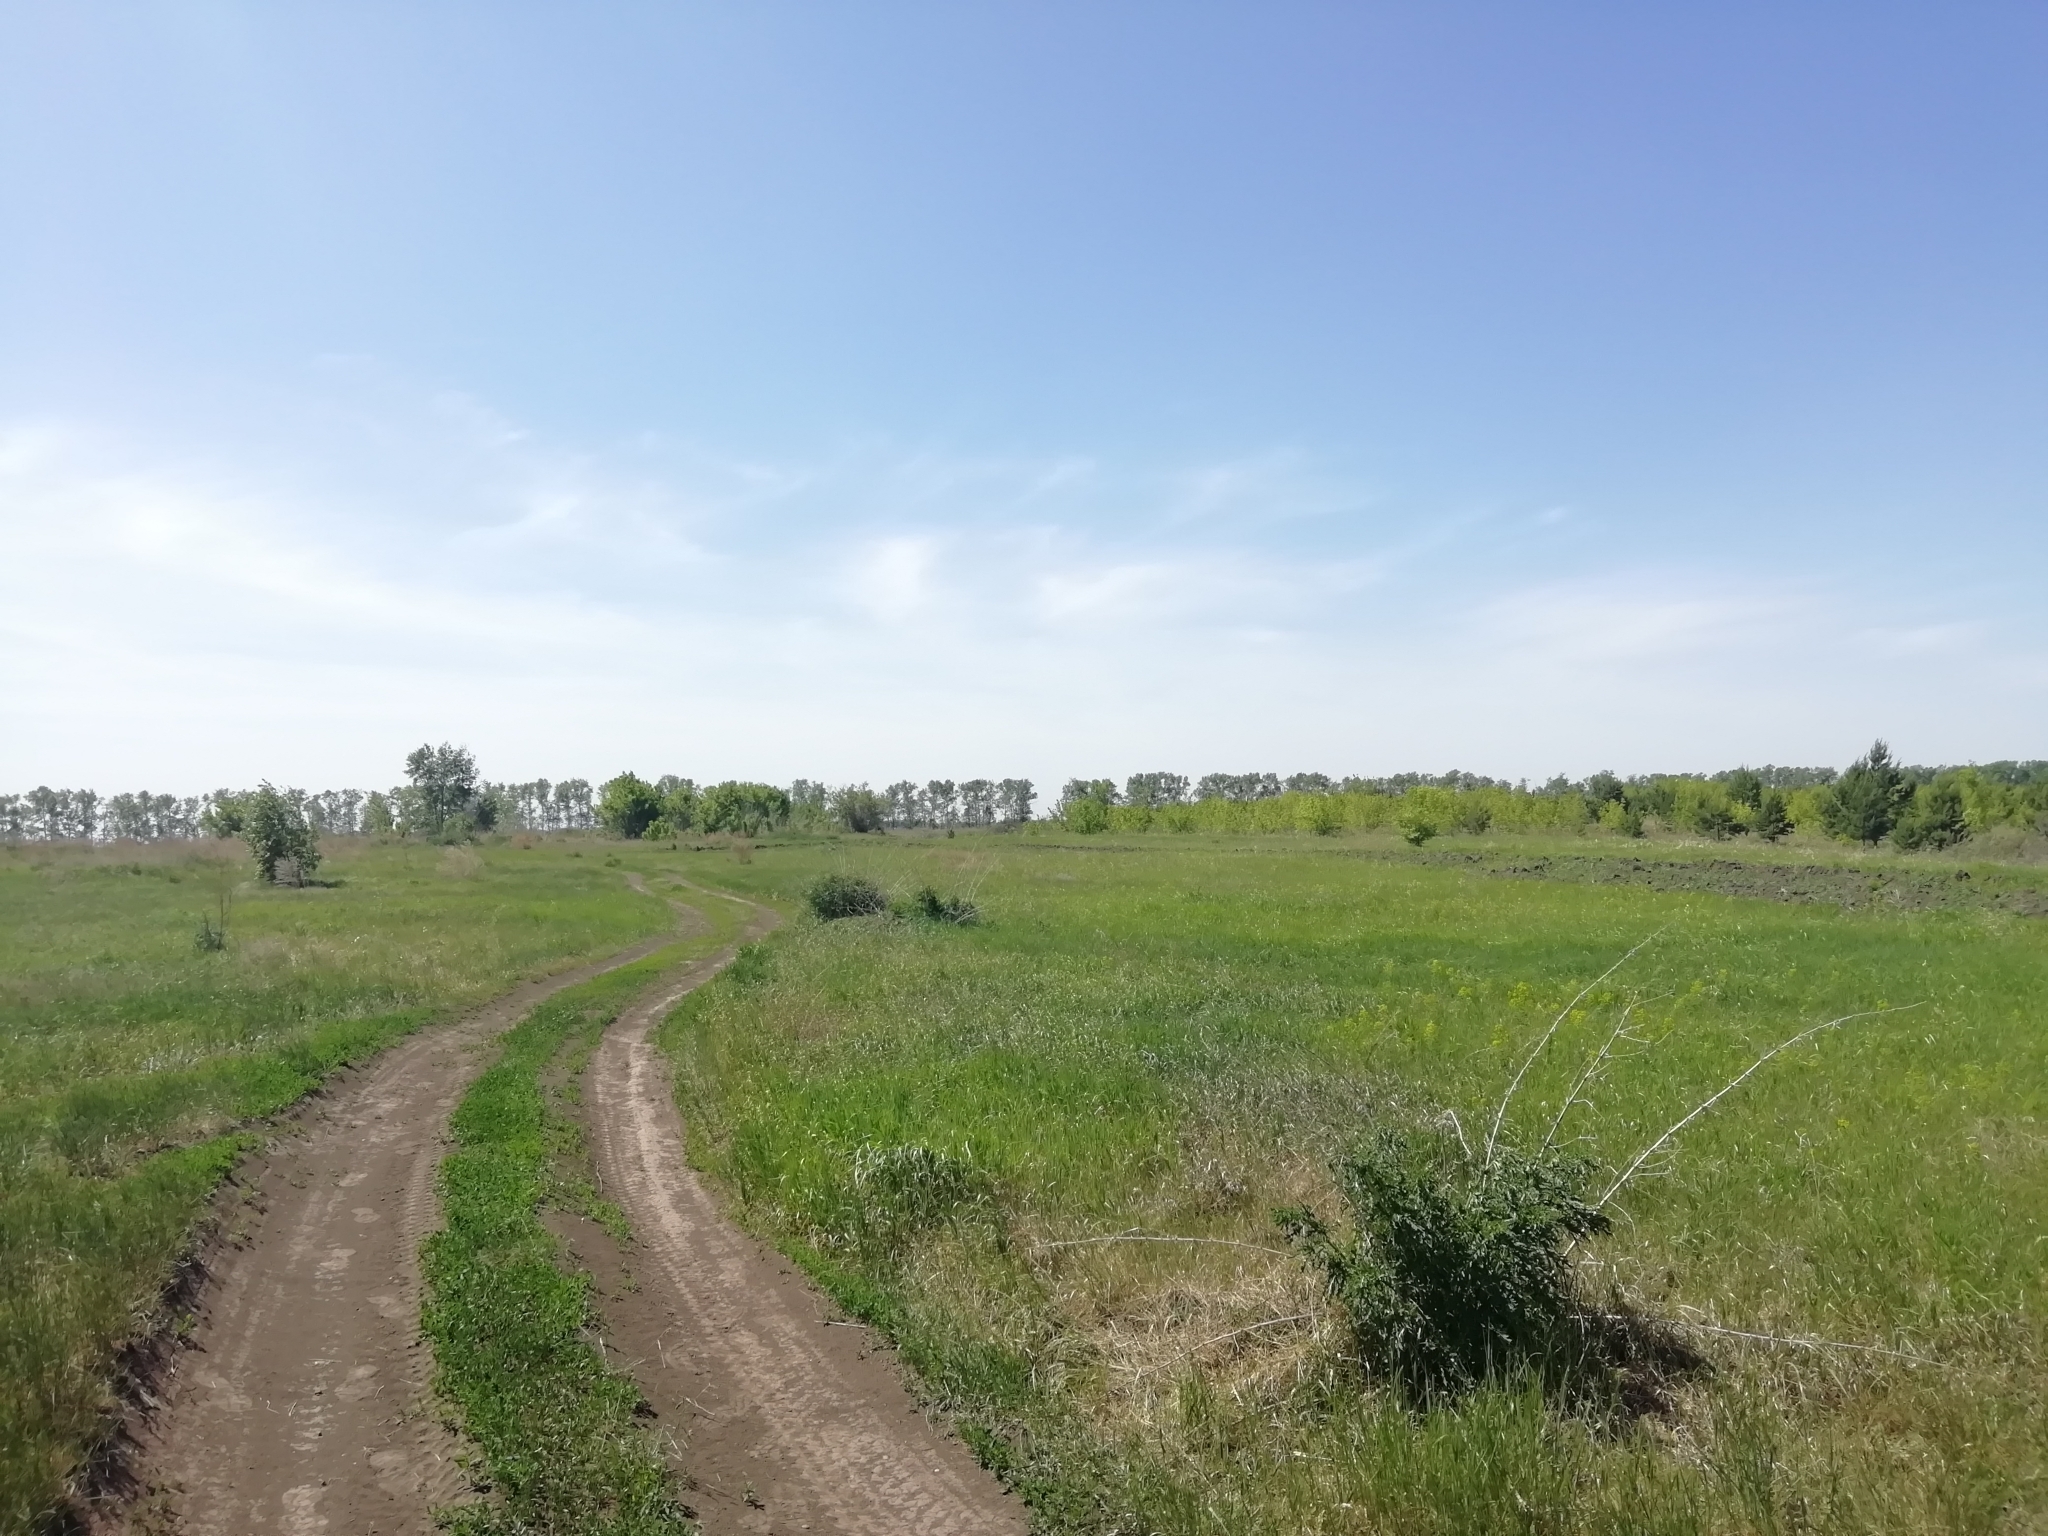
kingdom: Animalia
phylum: Chordata
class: Squamata
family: Lacertidae
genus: Lacerta
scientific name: Lacerta agilis
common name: Sand lizard
